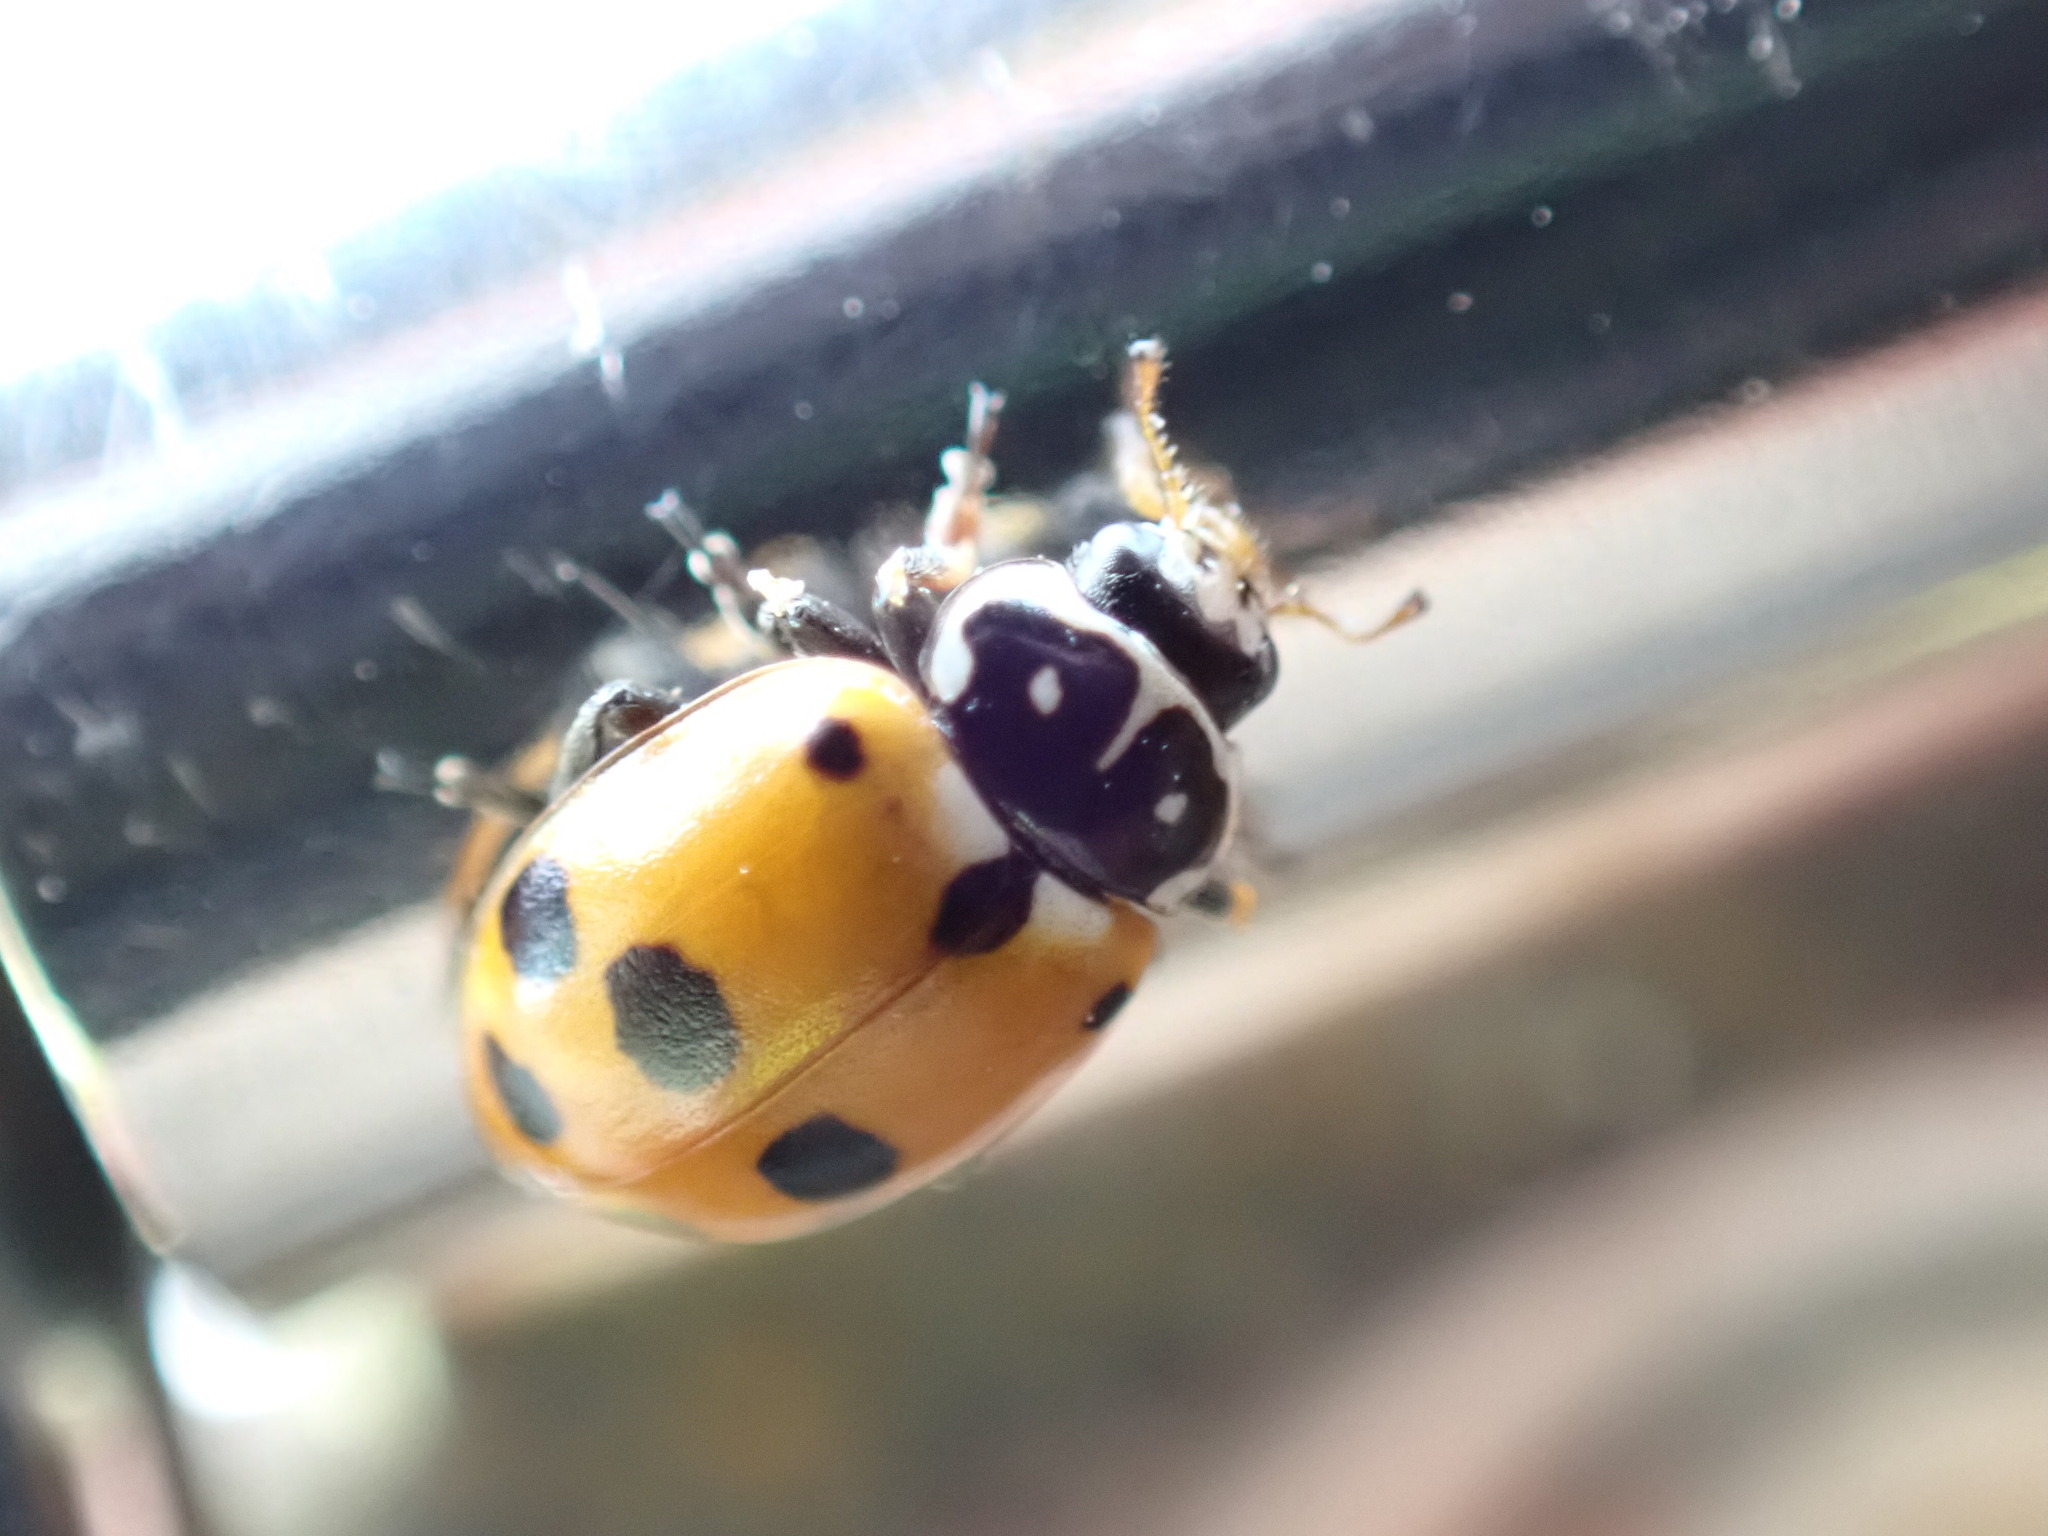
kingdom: Animalia
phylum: Arthropoda
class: Insecta
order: Coleoptera
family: Coccinellidae
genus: Hippodamia
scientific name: Hippodamia variegata
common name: Ladybird beetle
